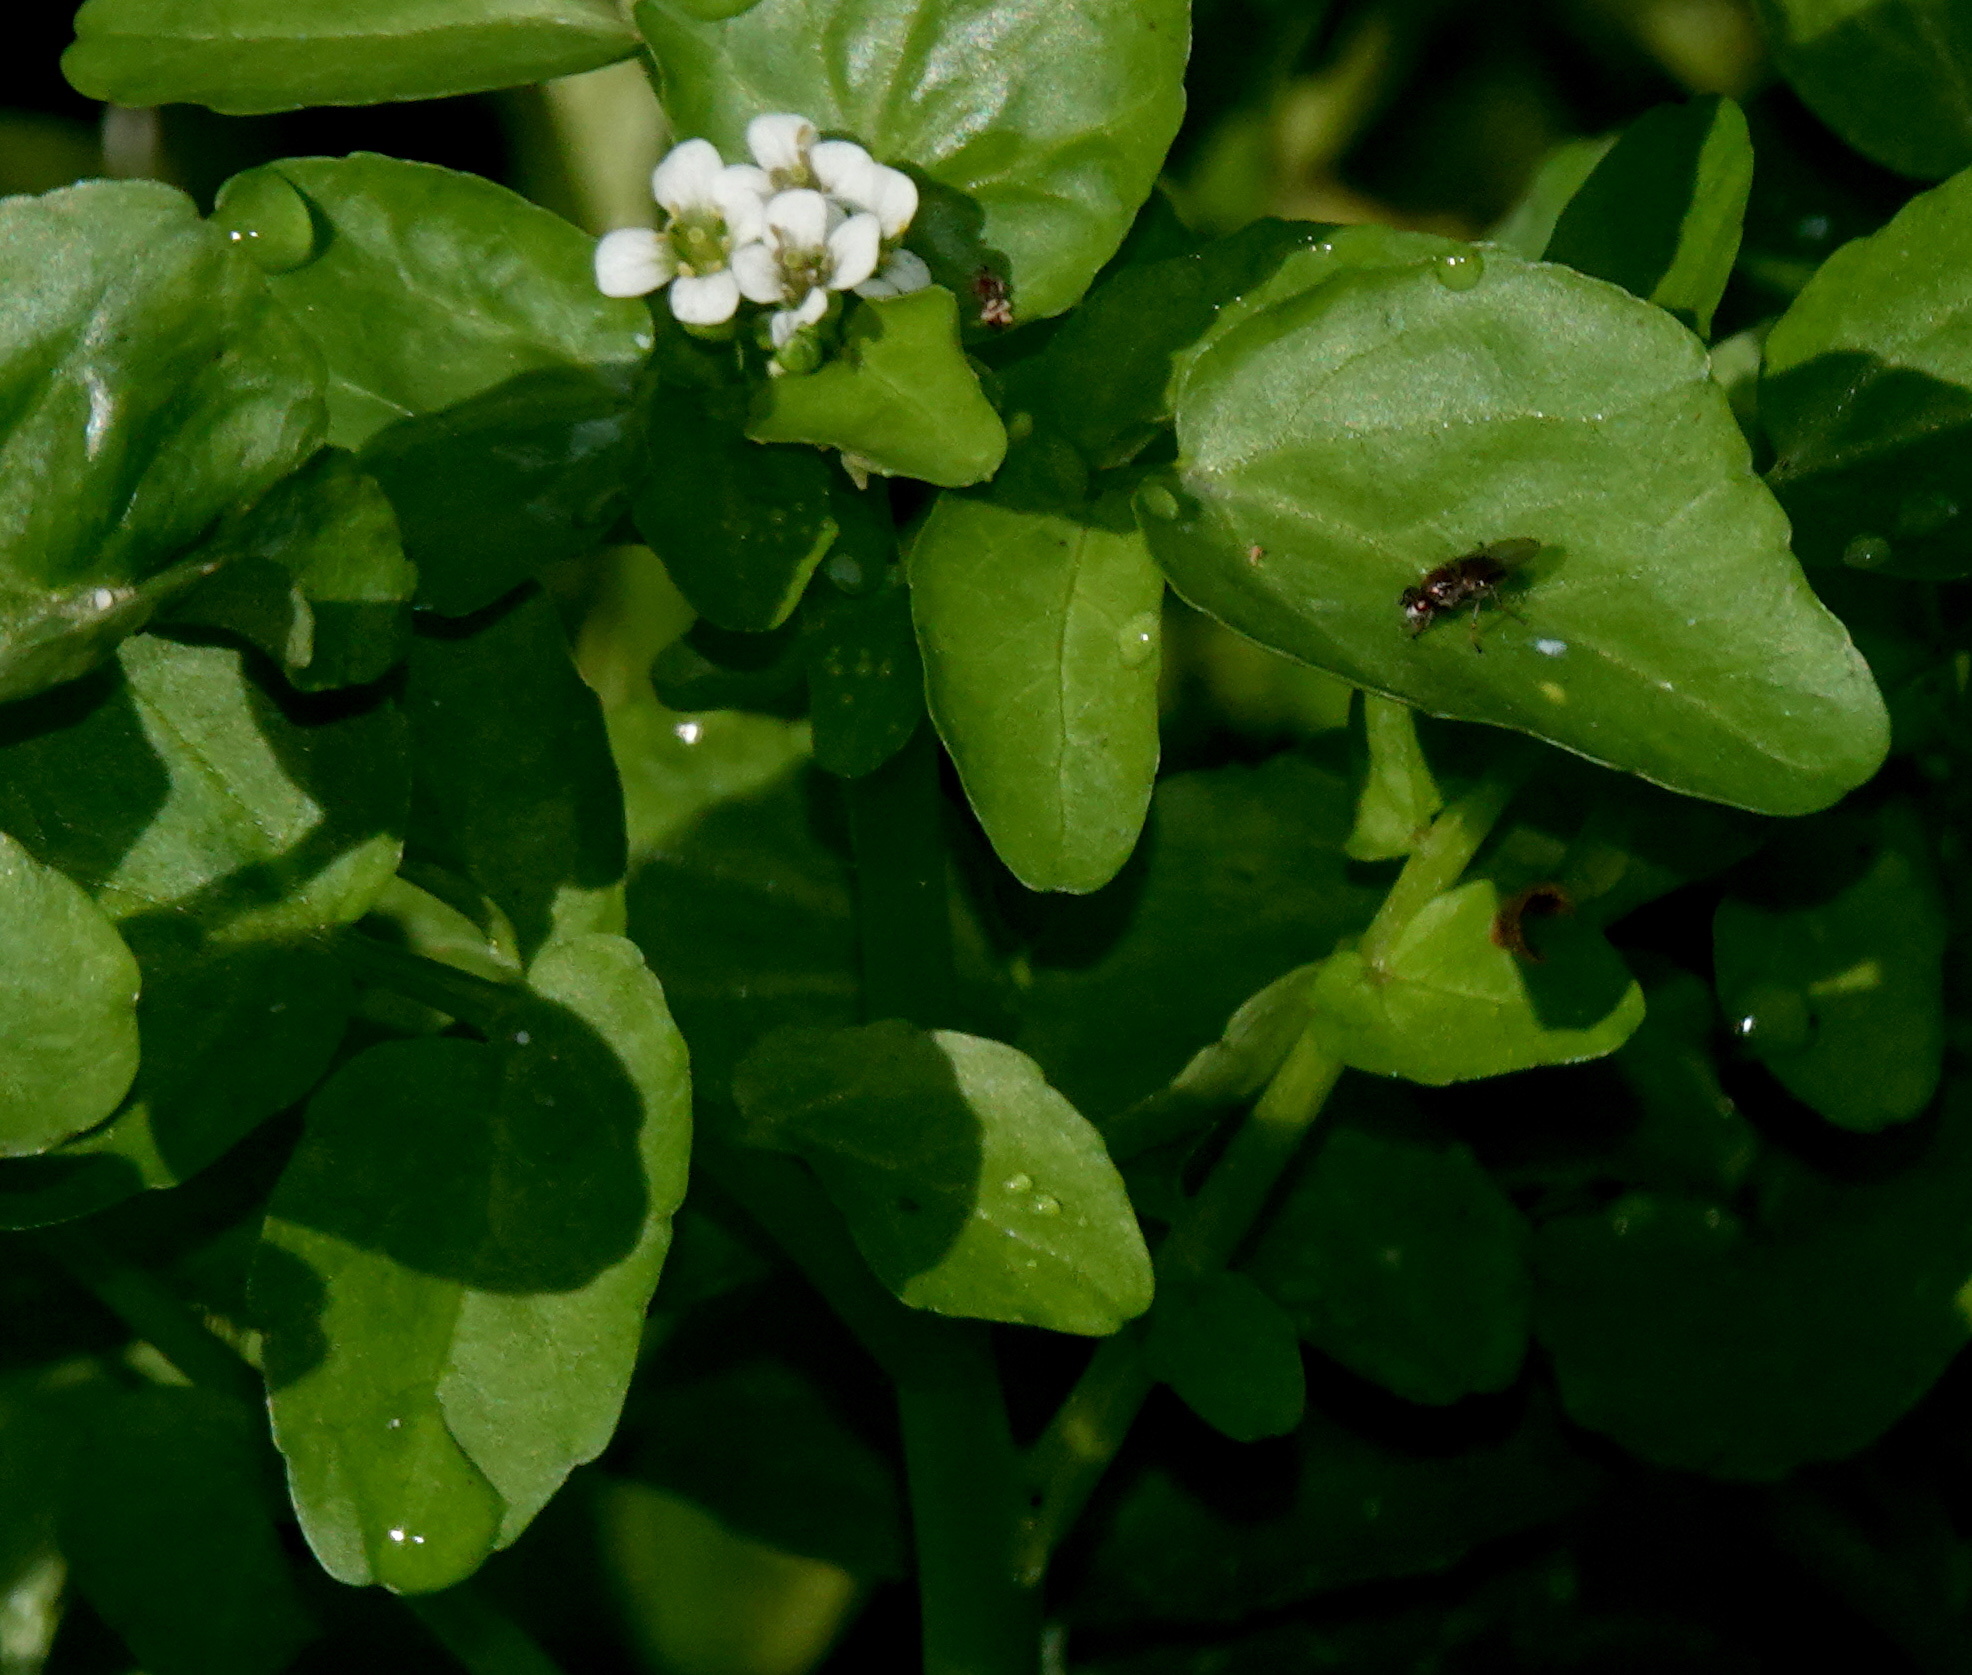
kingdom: Plantae
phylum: Tracheophyta
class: Magnoliopsida
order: Brassicales
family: Brassicaceae
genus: Nasturtium
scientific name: Nasturtium officinale
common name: Watercress
